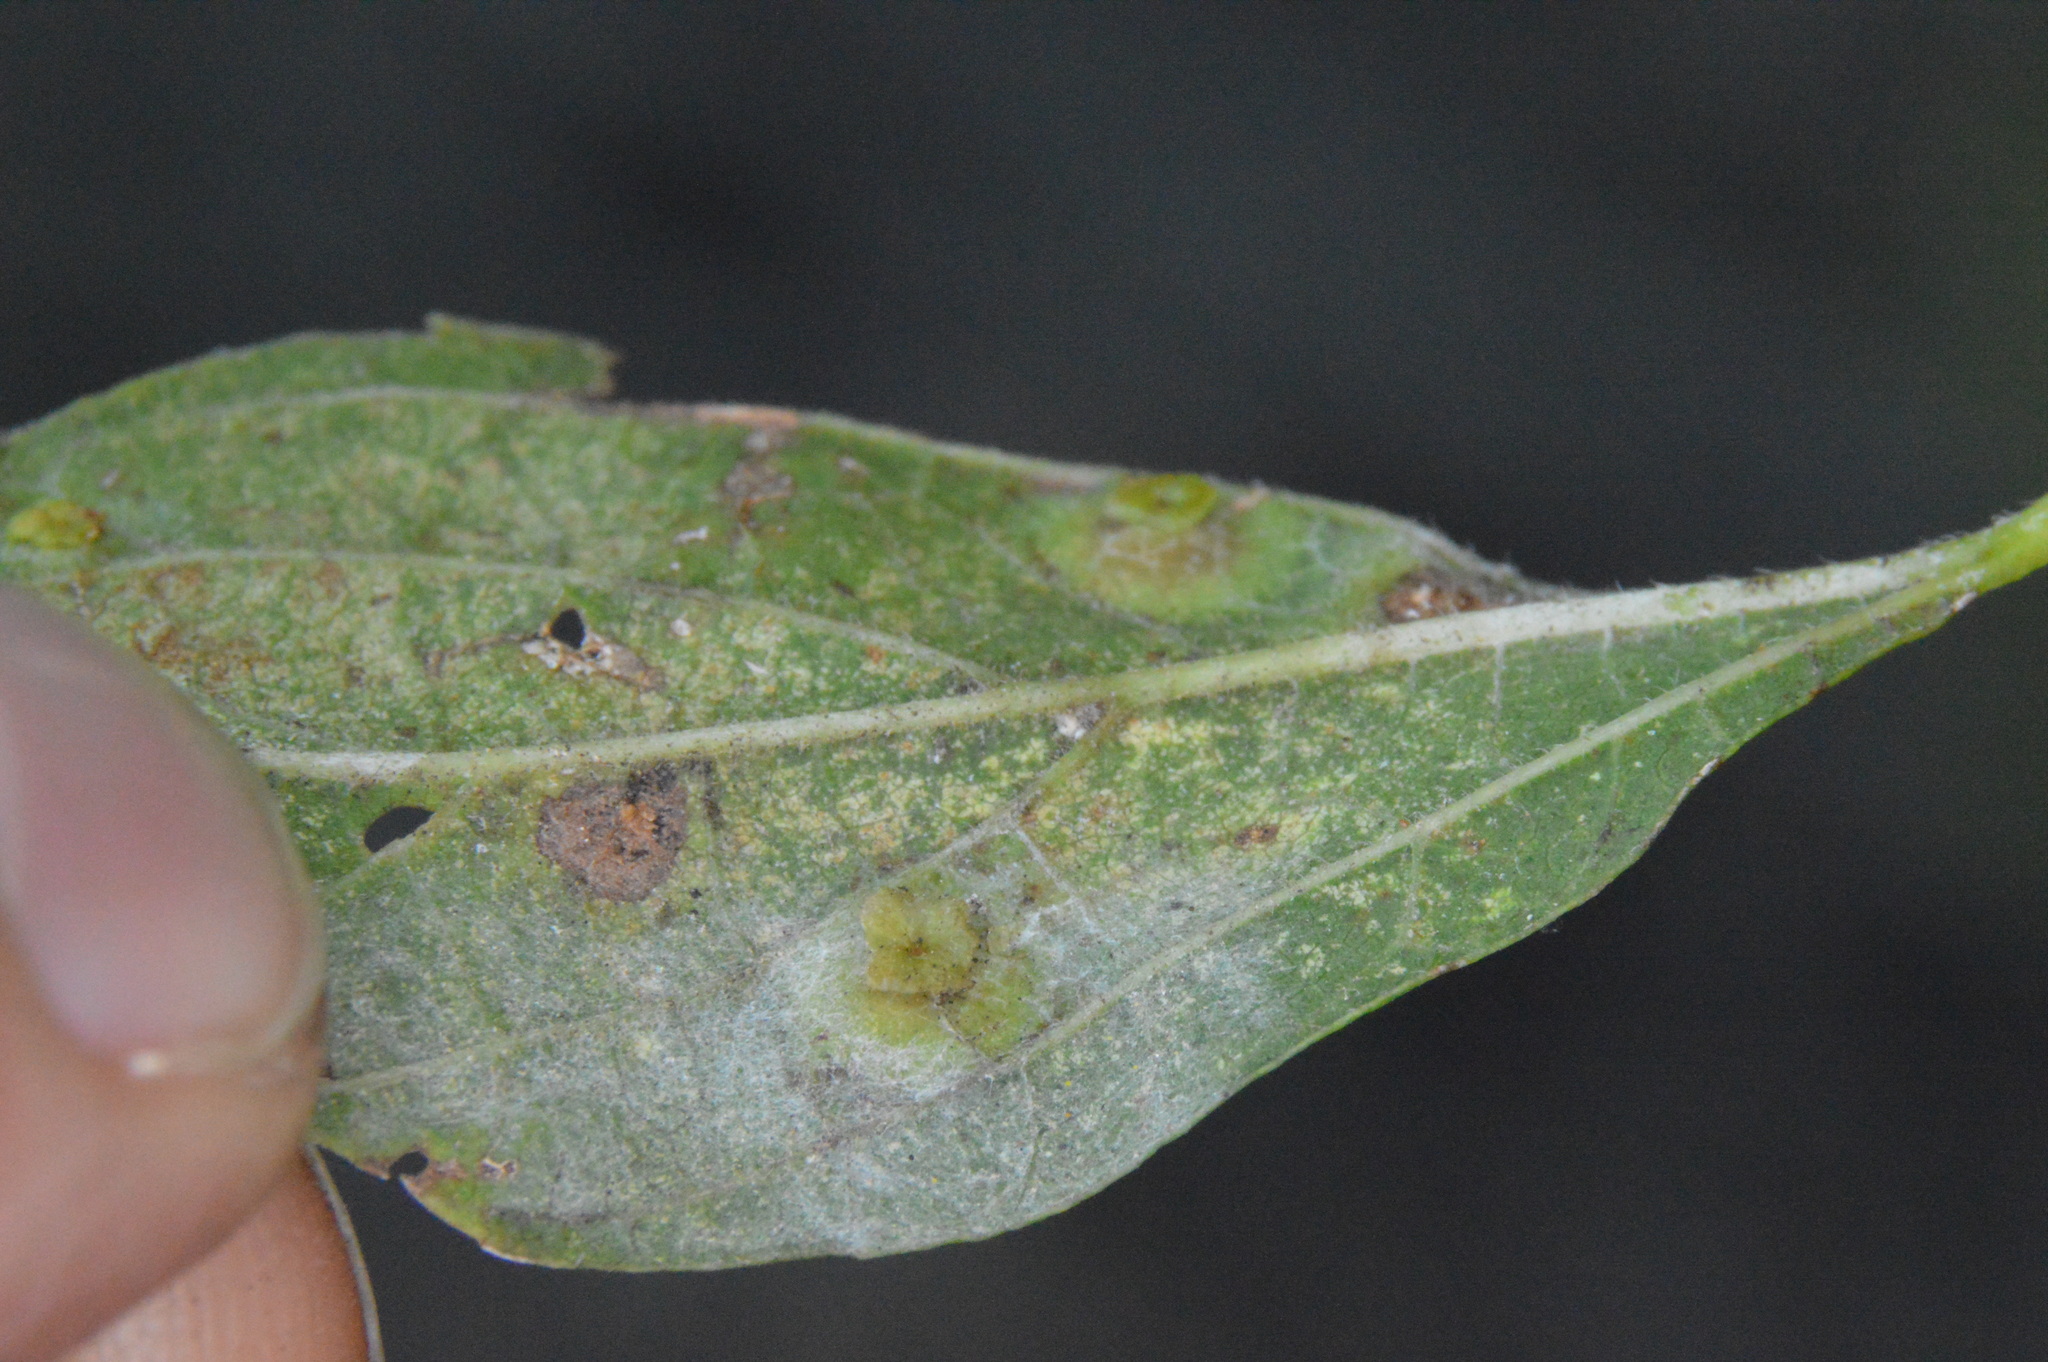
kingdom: Animalia
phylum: Arthropoda
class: Insecta
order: Hemiptera
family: Aphalaridae
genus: Pachypsylla
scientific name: Pachypsylla celtidisasterisca
